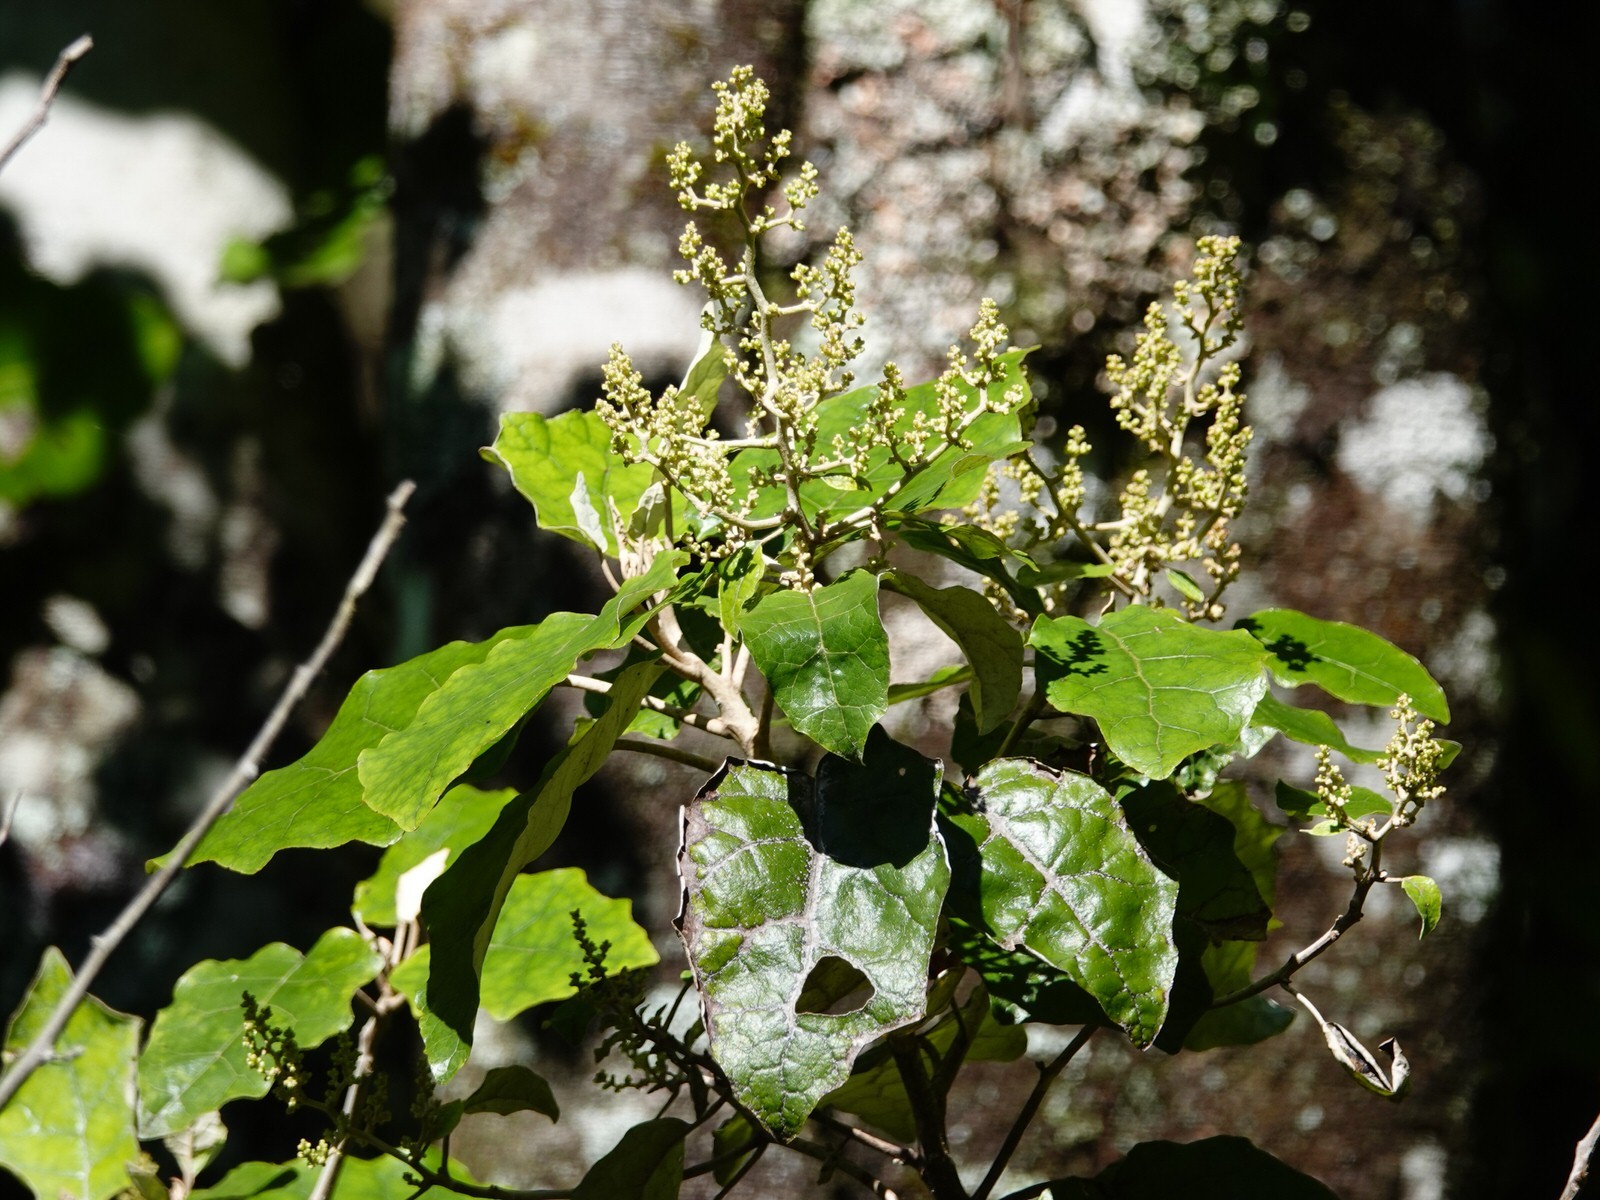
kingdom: Plantae
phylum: Tracheophyta
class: Magnoliopsida
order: Asterales
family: Asteraceae
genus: Brachyglottis
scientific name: Brachyglottis repanda
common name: Hedge ragwort
